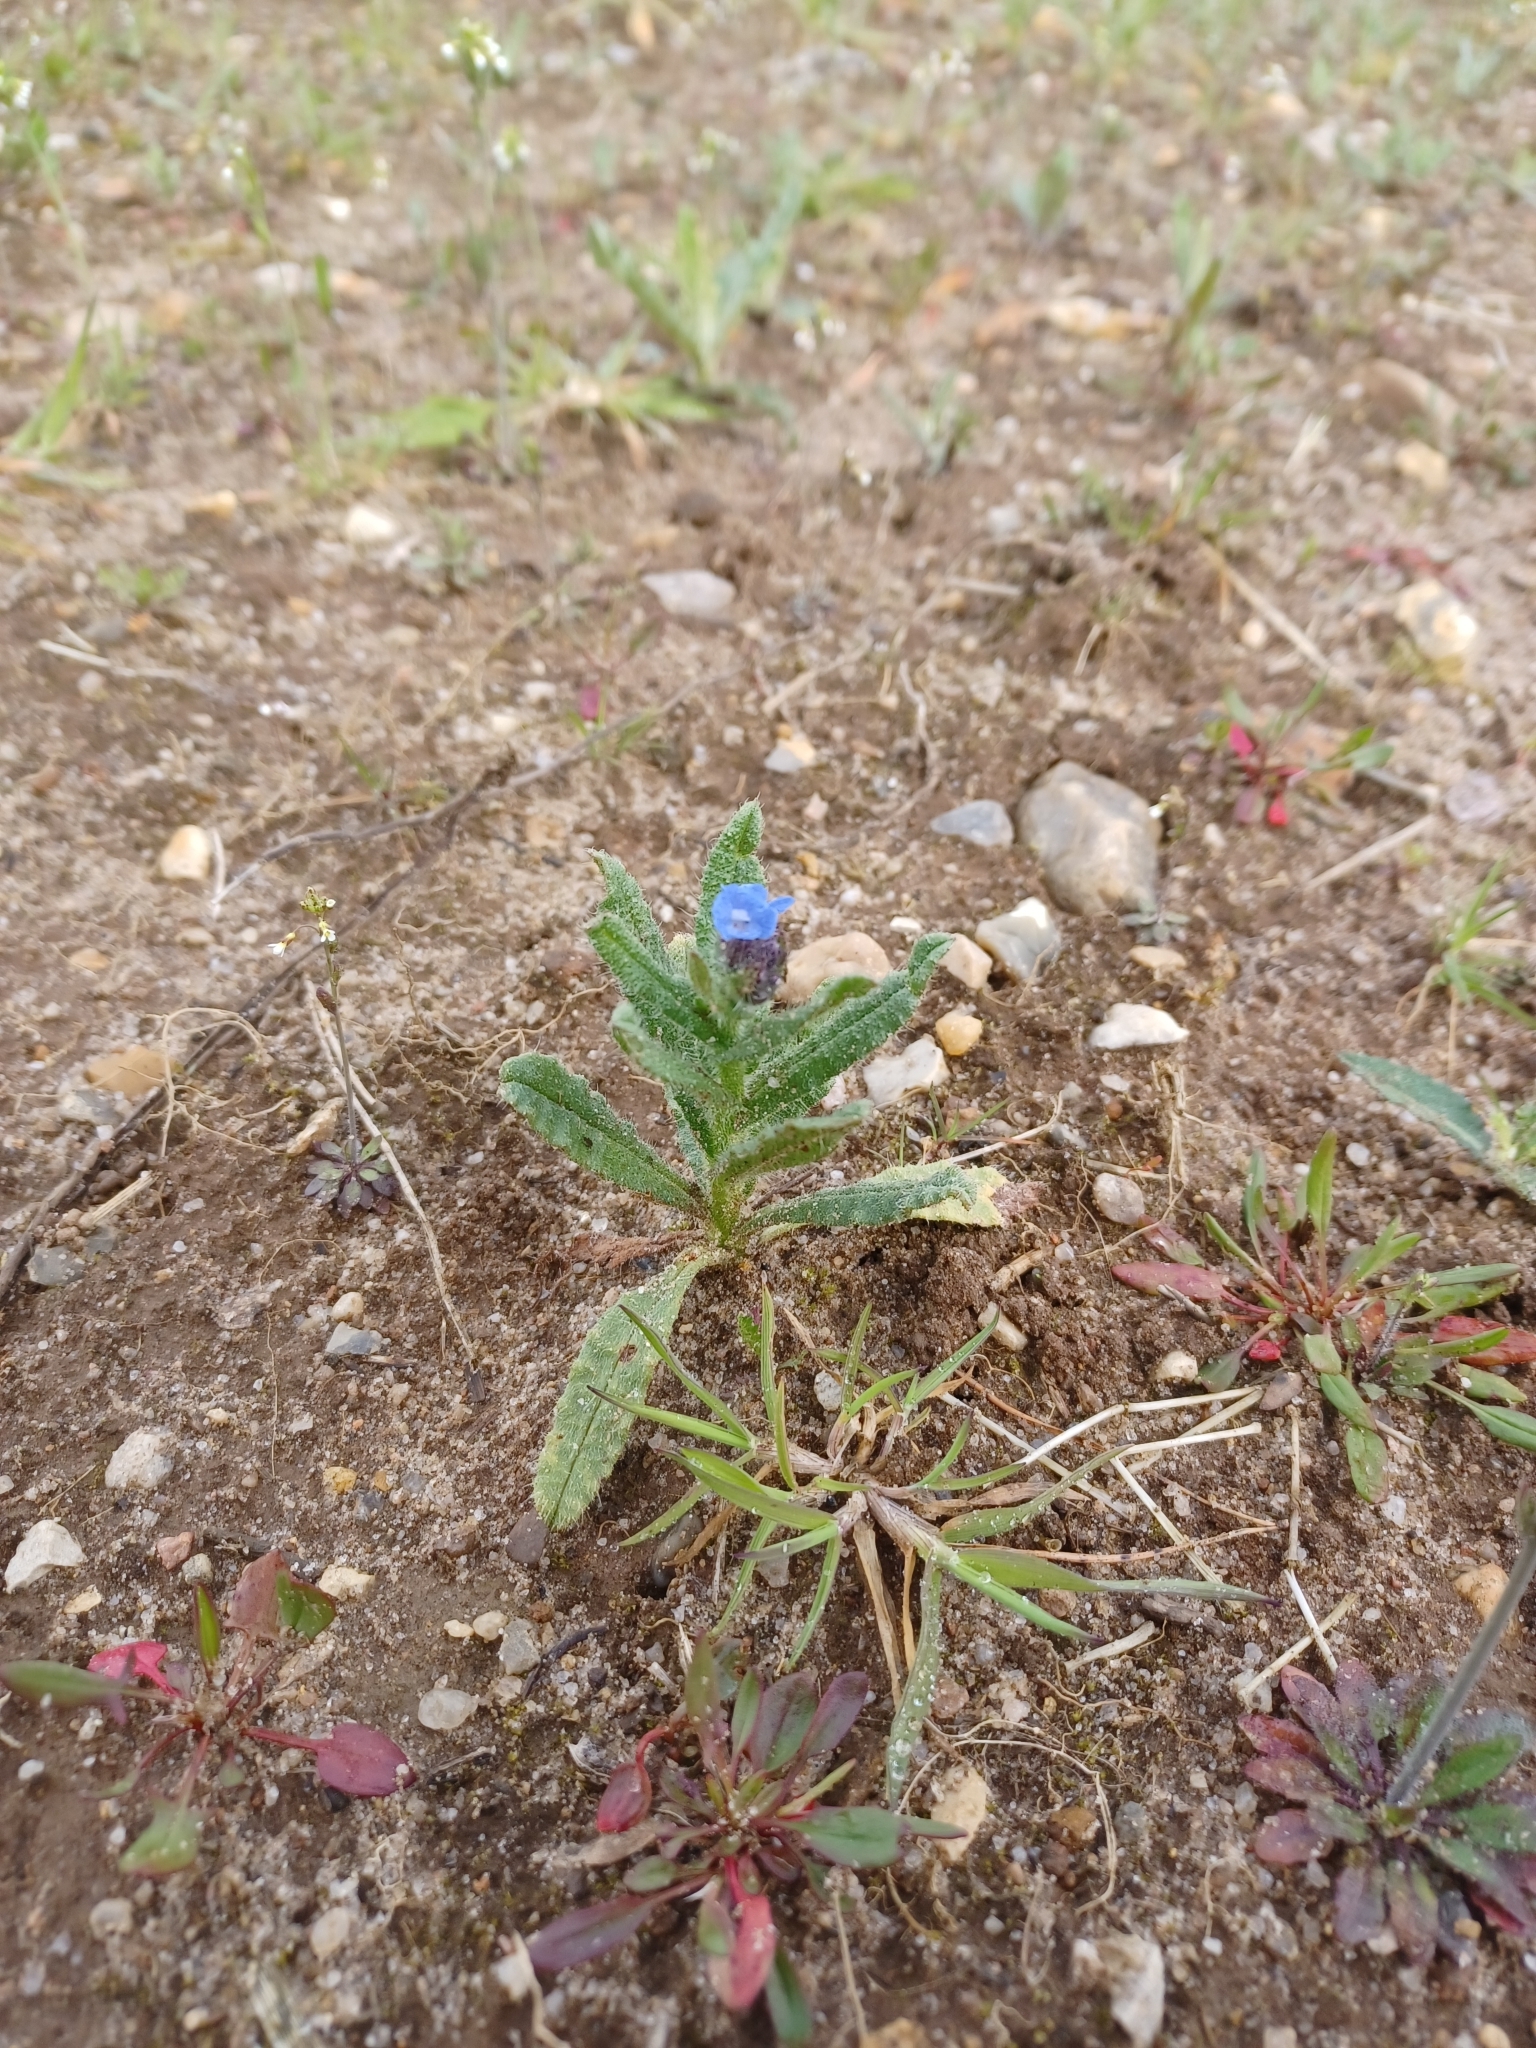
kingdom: Plantae
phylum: Tracheophyta
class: Magnoliopsida
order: Boraginales
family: Boraginaceae
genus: Lycopsis
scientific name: Lycopsis arvensis
